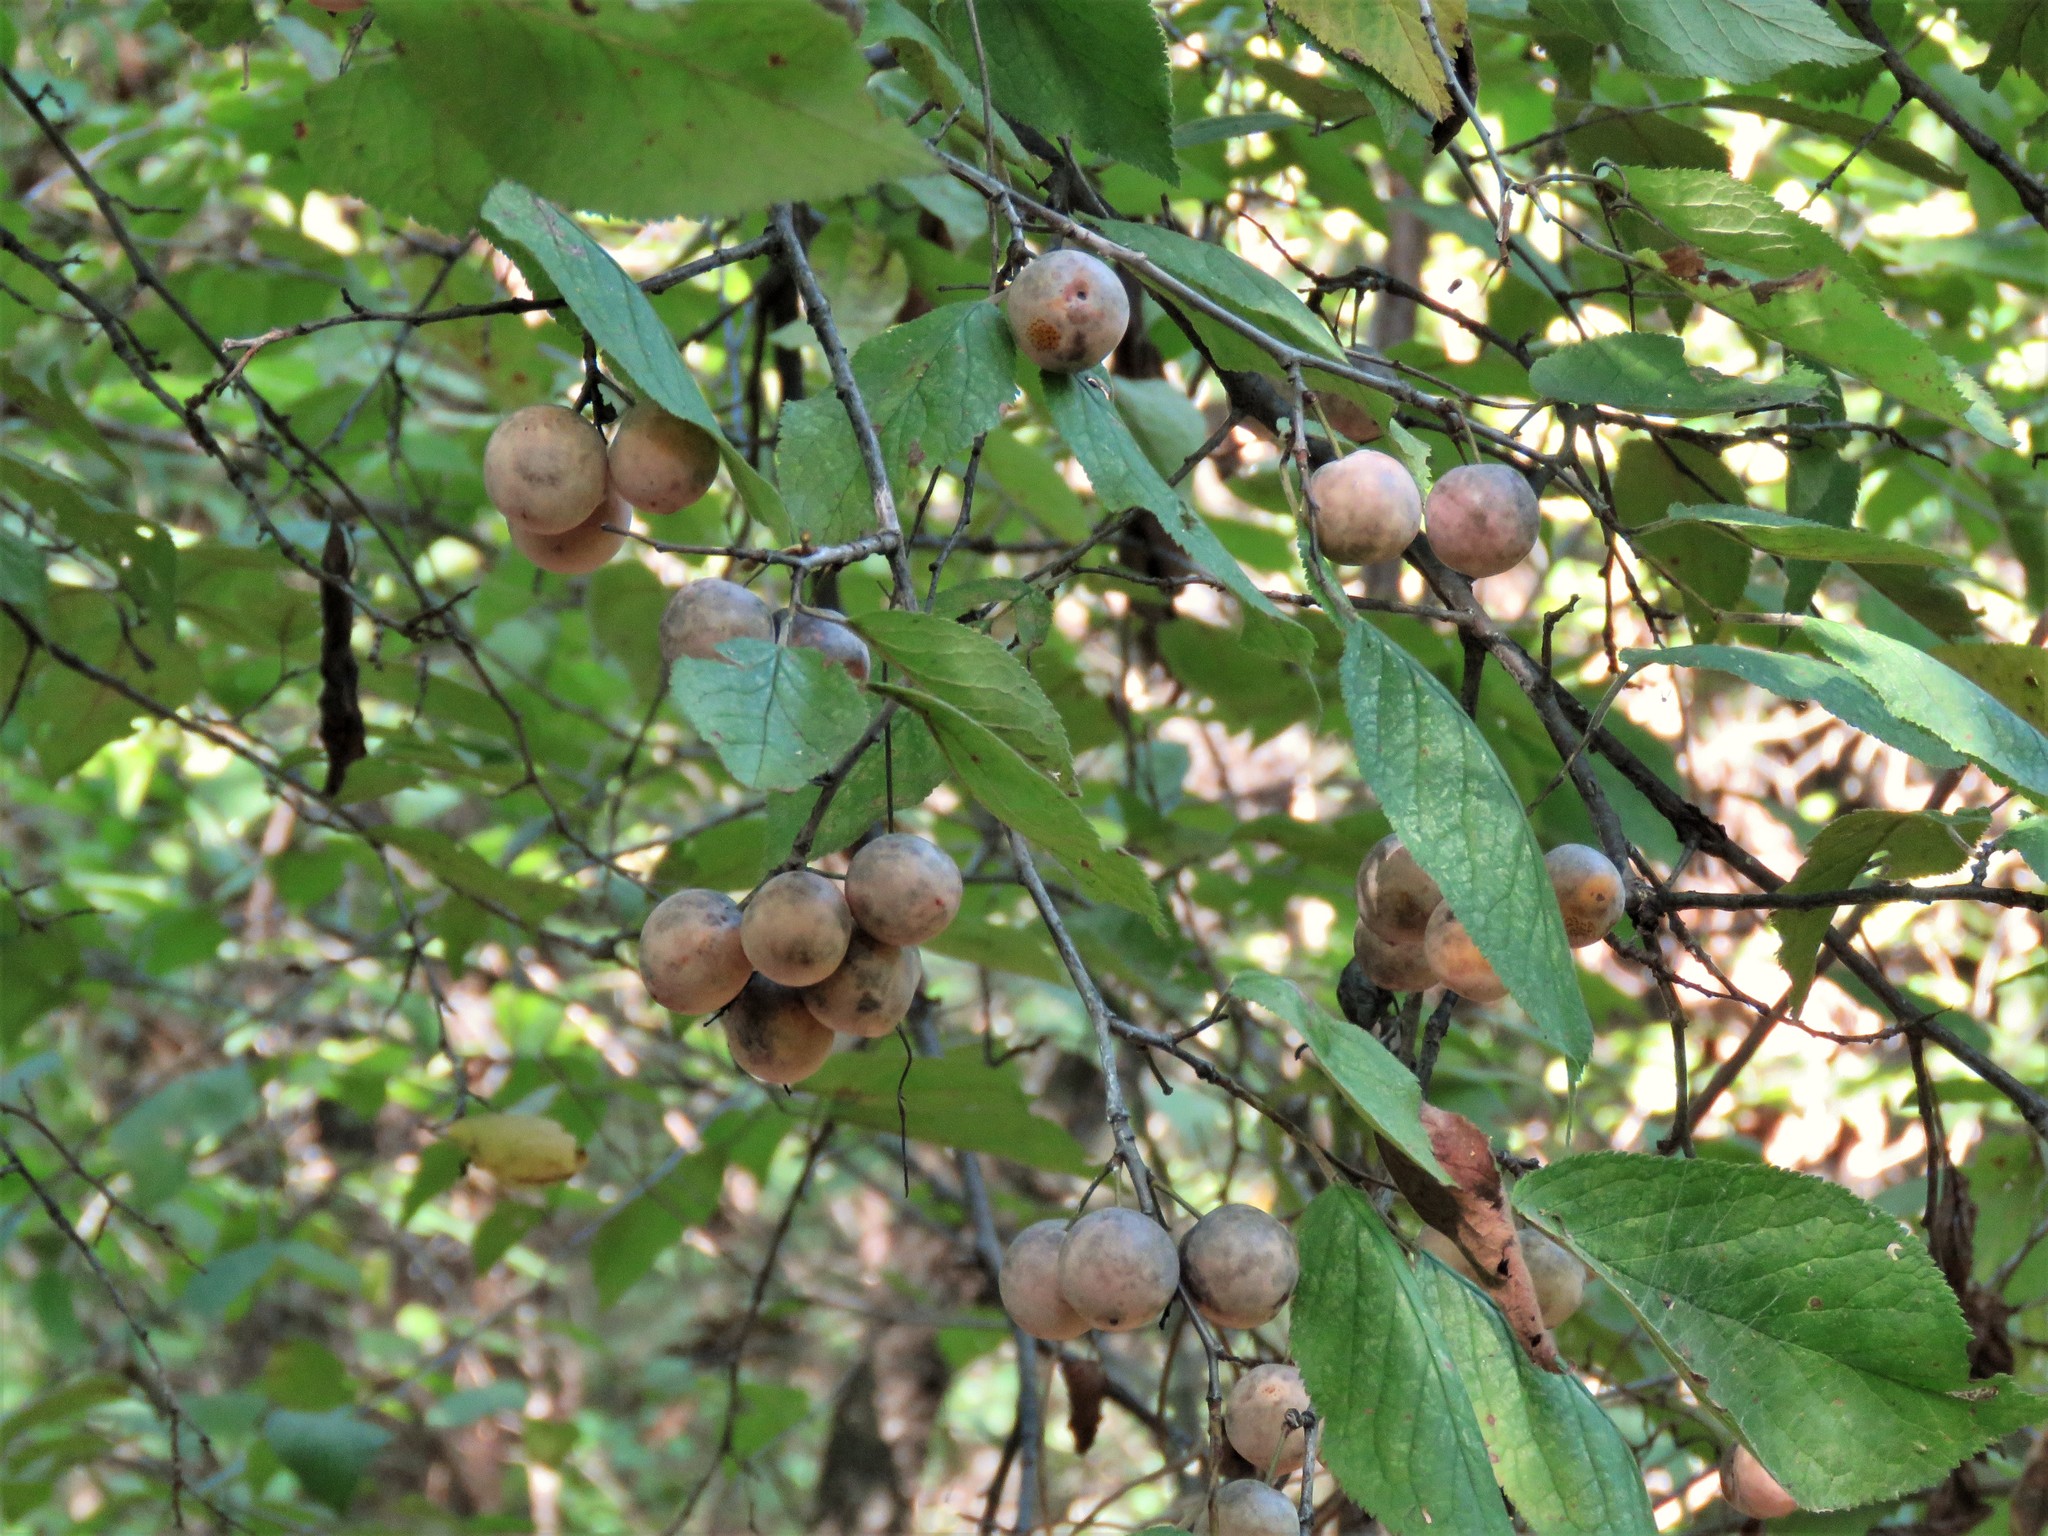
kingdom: Plantae
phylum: Tracheophyta
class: Magnoliopsida
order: Rosales
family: Rosaceae
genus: Prunus
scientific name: Prunus mexicana
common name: Mexican plum
